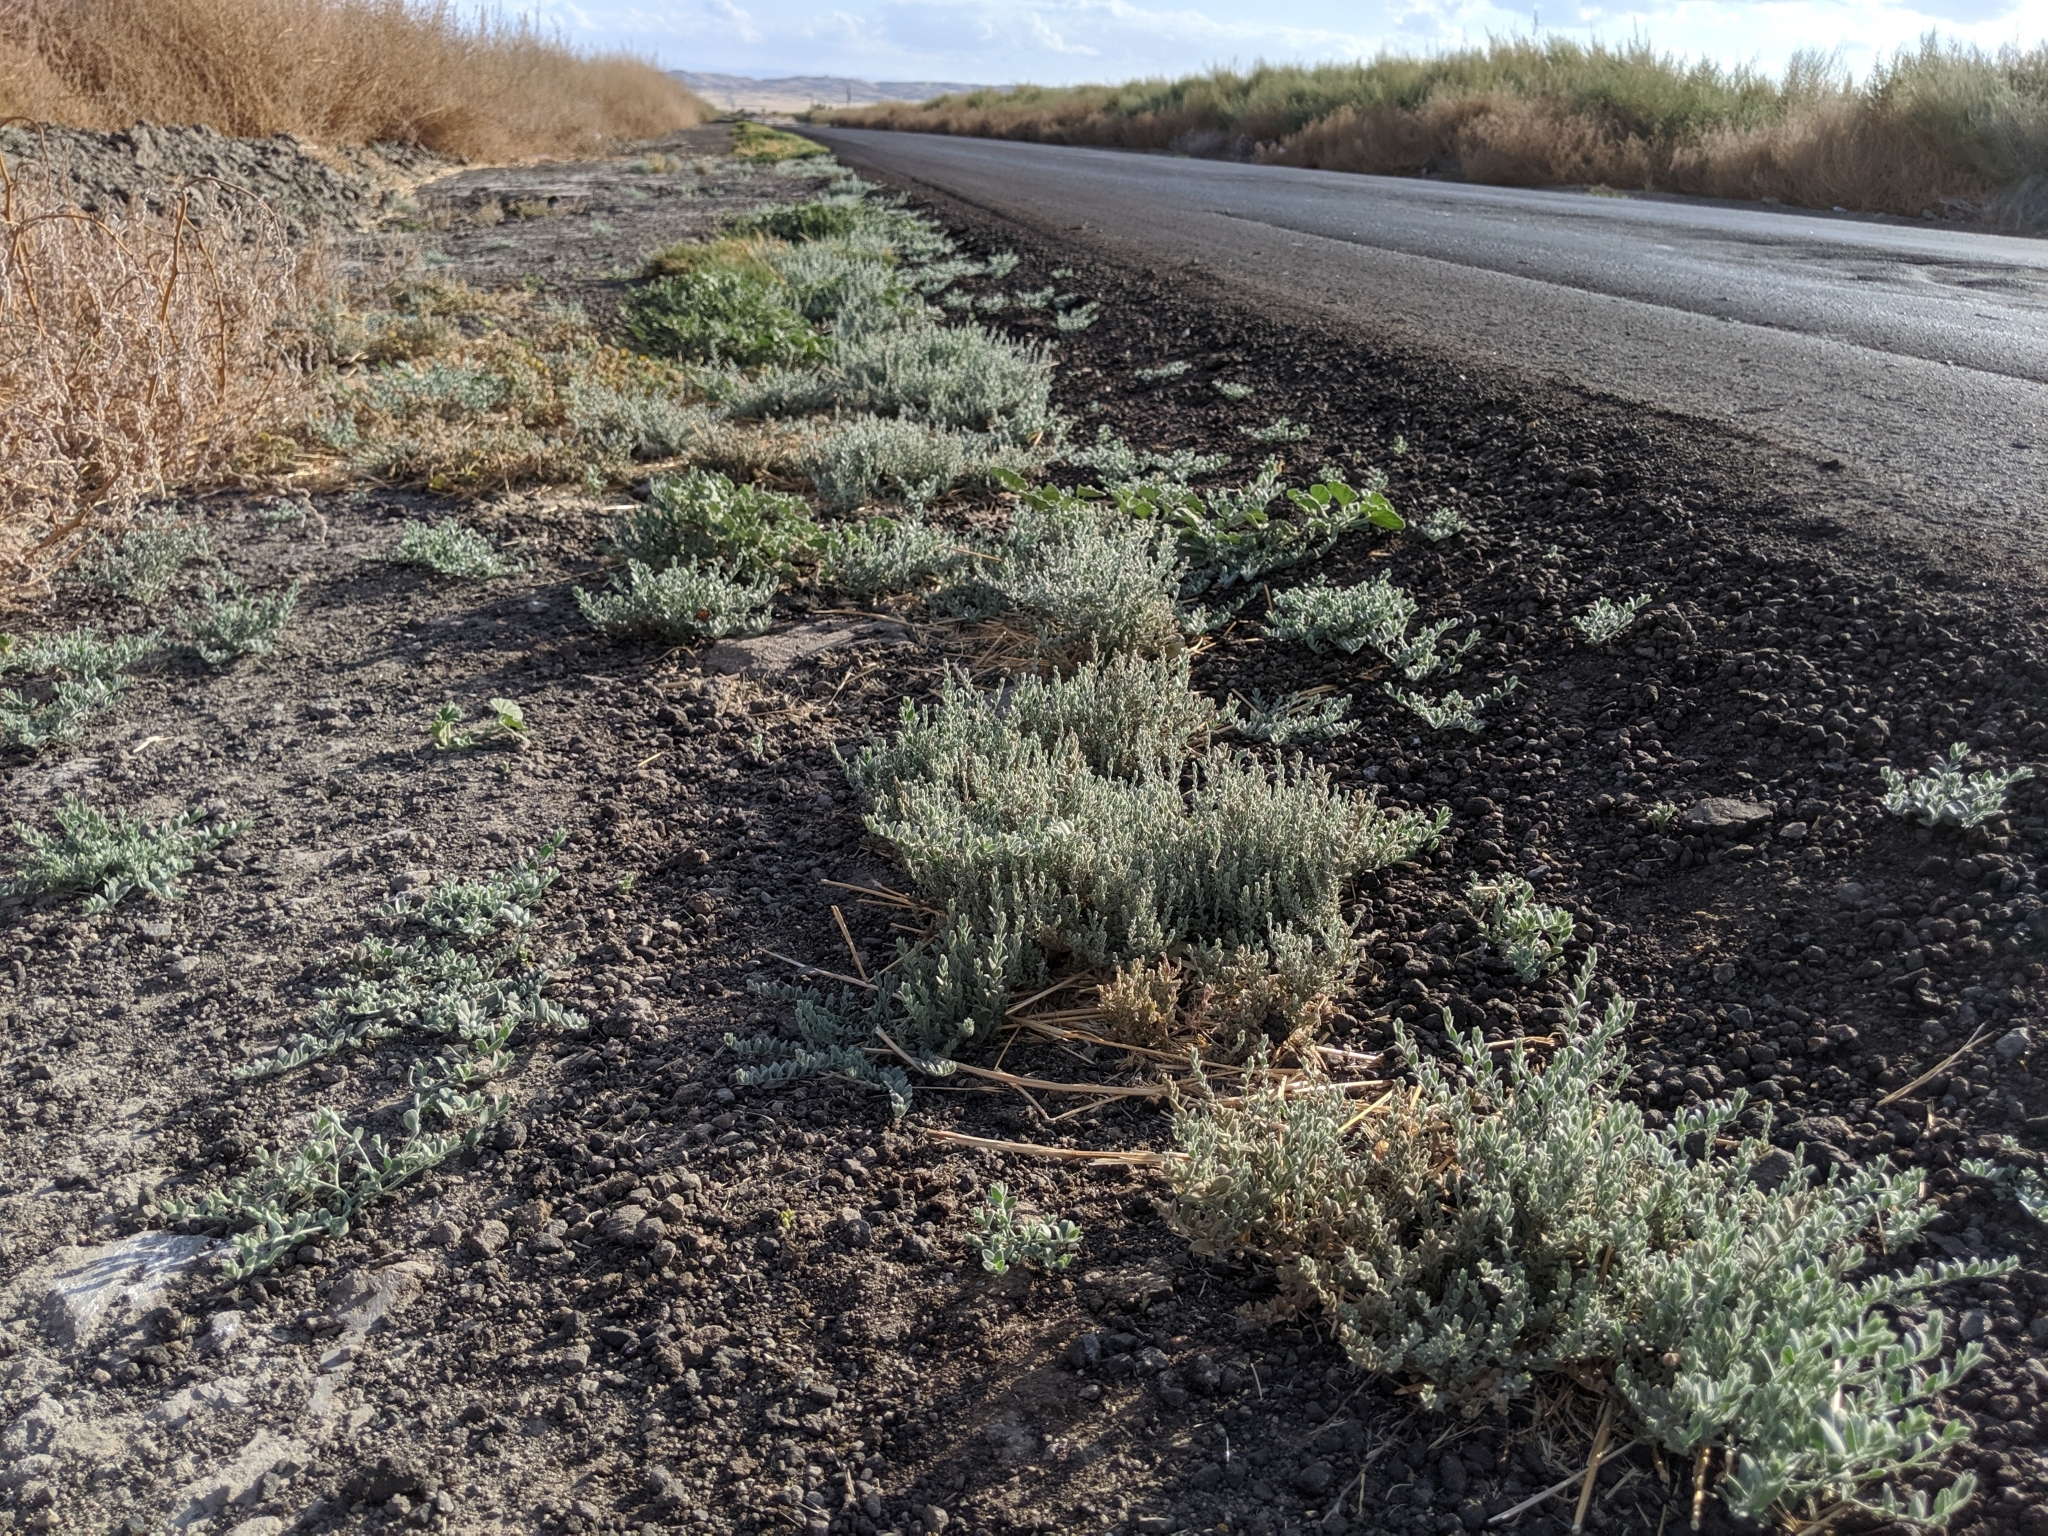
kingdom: Plantae
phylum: Tracheophyta
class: Magnoliopsida
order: Solanales
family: Convolvulaceae
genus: Cressa
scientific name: Cressa truxillensis
